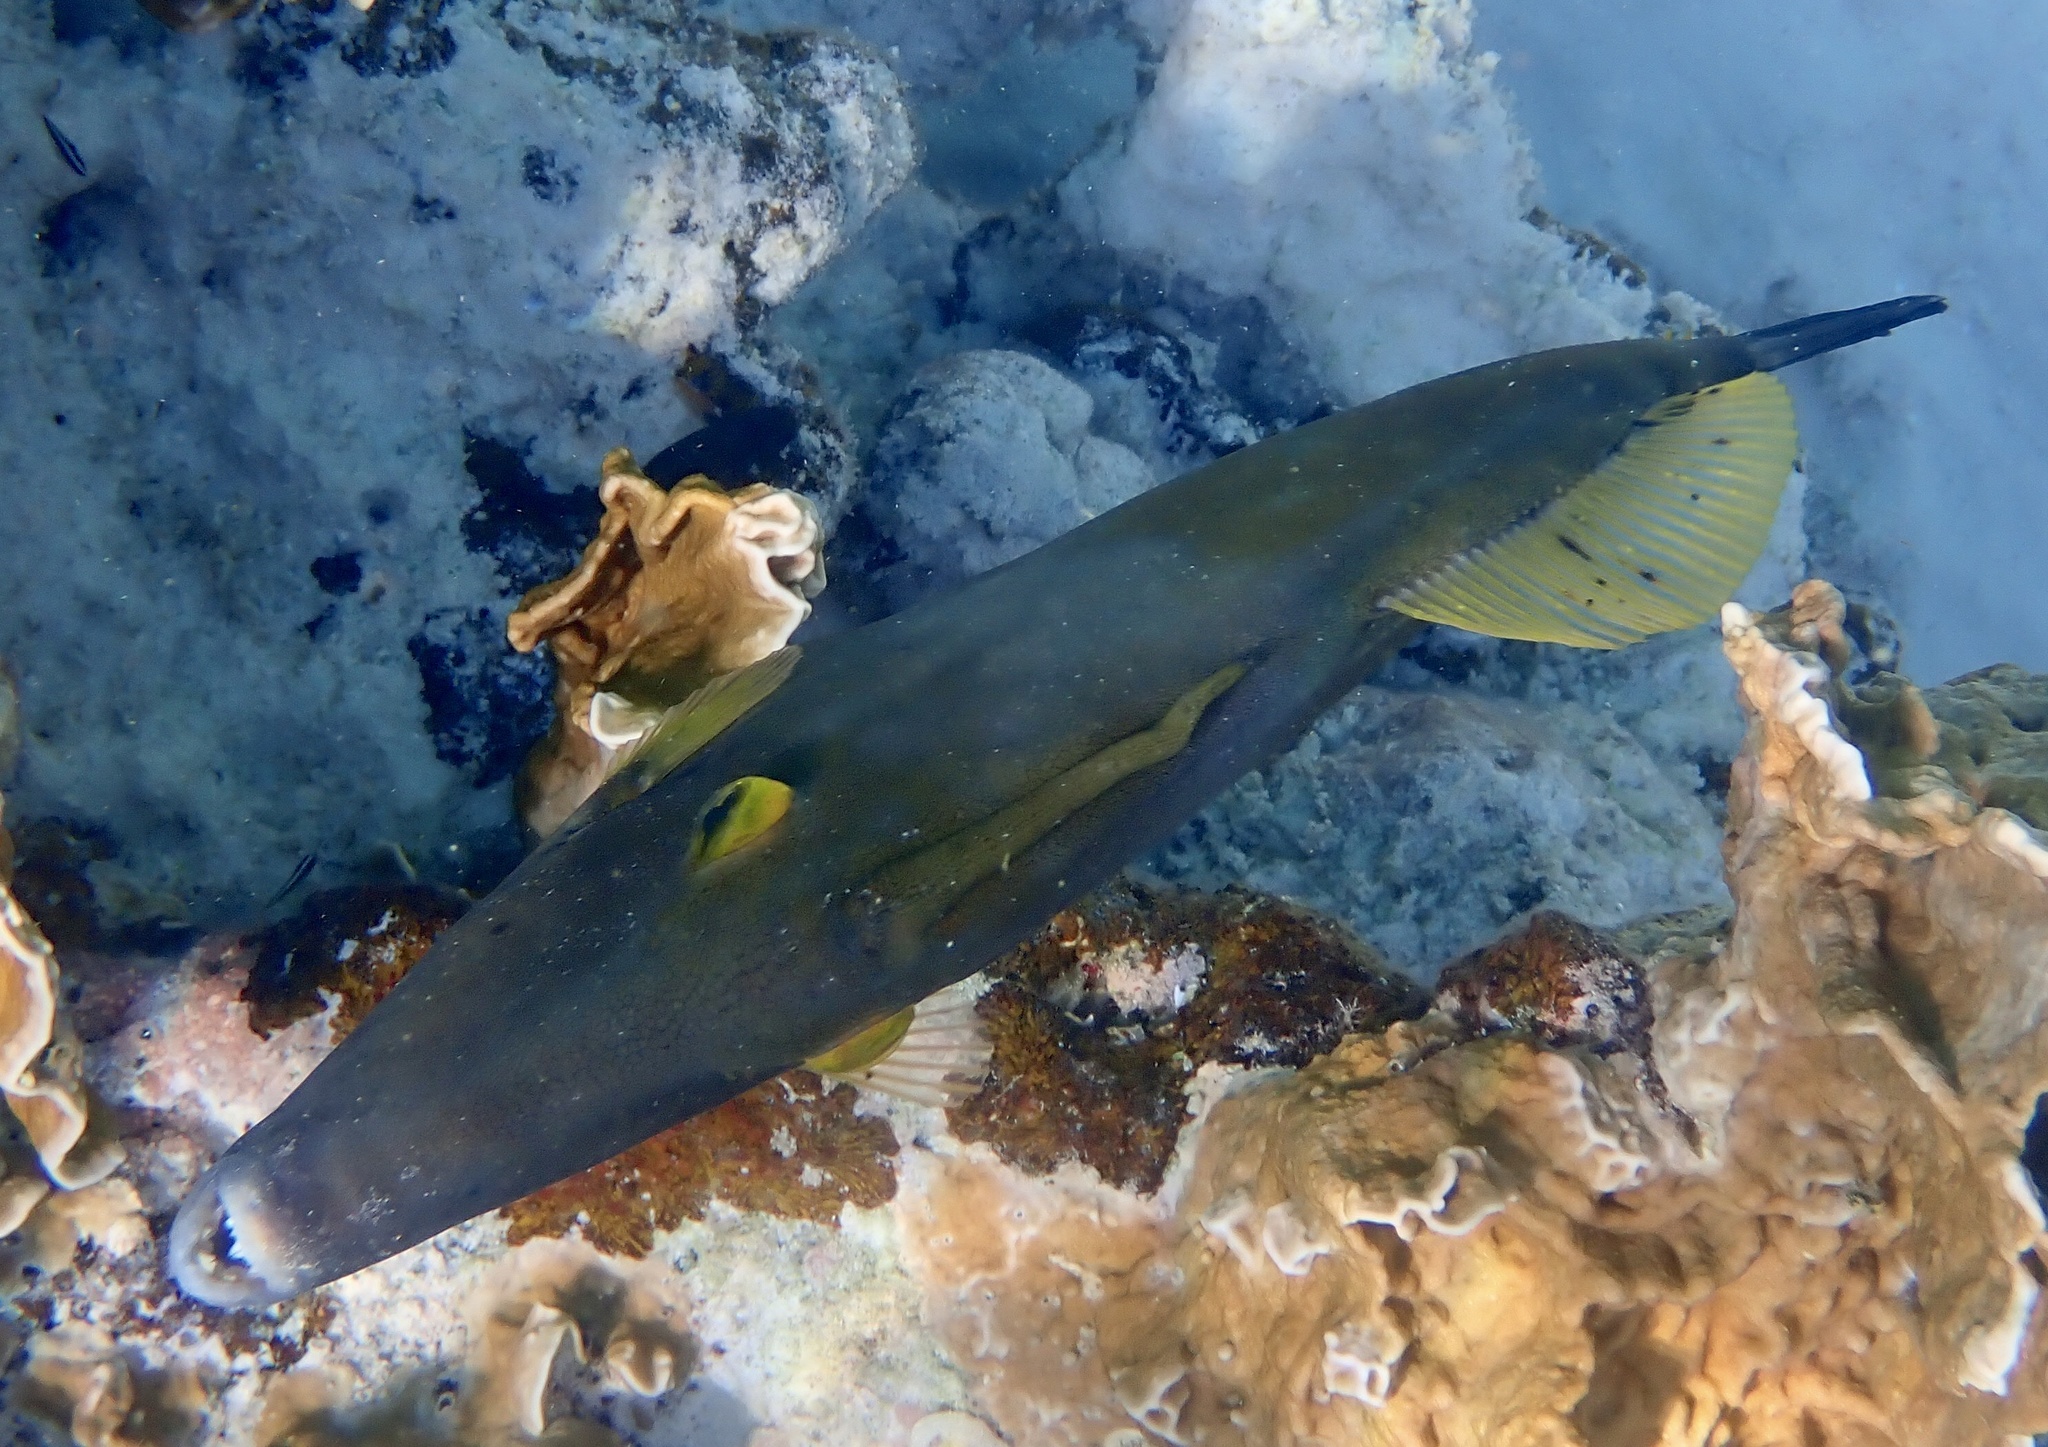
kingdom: Animalia
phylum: Chordata
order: Tetraodontiformes
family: Monacanthidae
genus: Cantherhines
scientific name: Cantherhines macrocerus
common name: Whitespotted filefish
